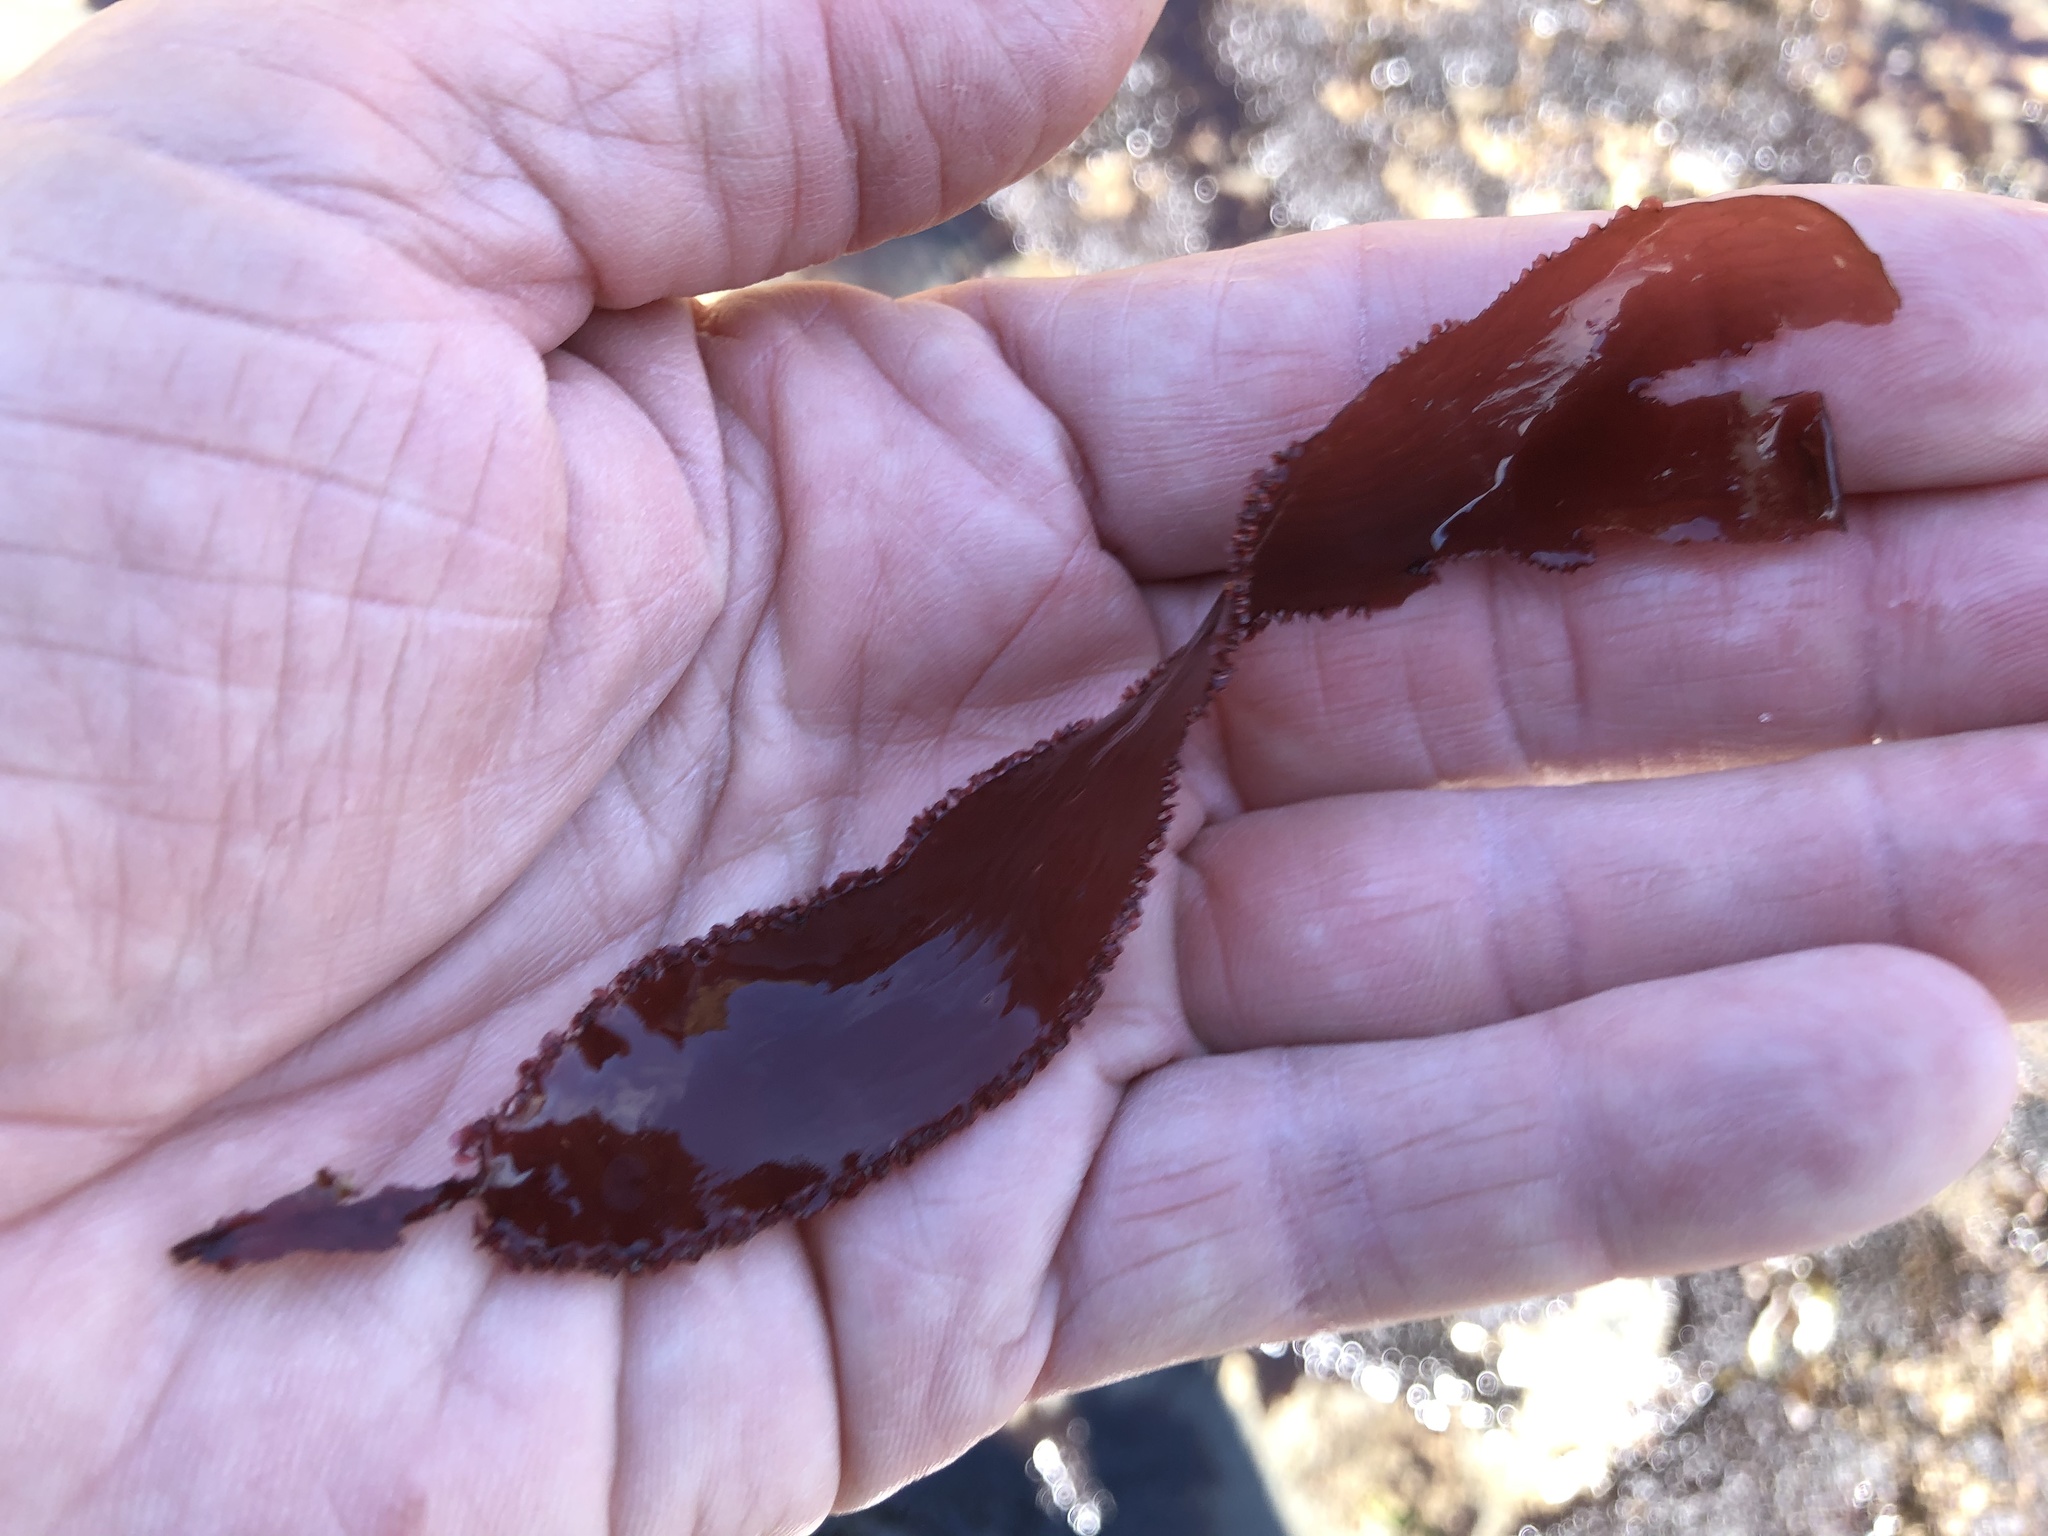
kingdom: Plantae
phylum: Rhodophyta
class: Florideophyceae
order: Ceramiales
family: Delesseriaceae
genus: Cryptopleura
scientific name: Cryptopleura ruprechtiana
